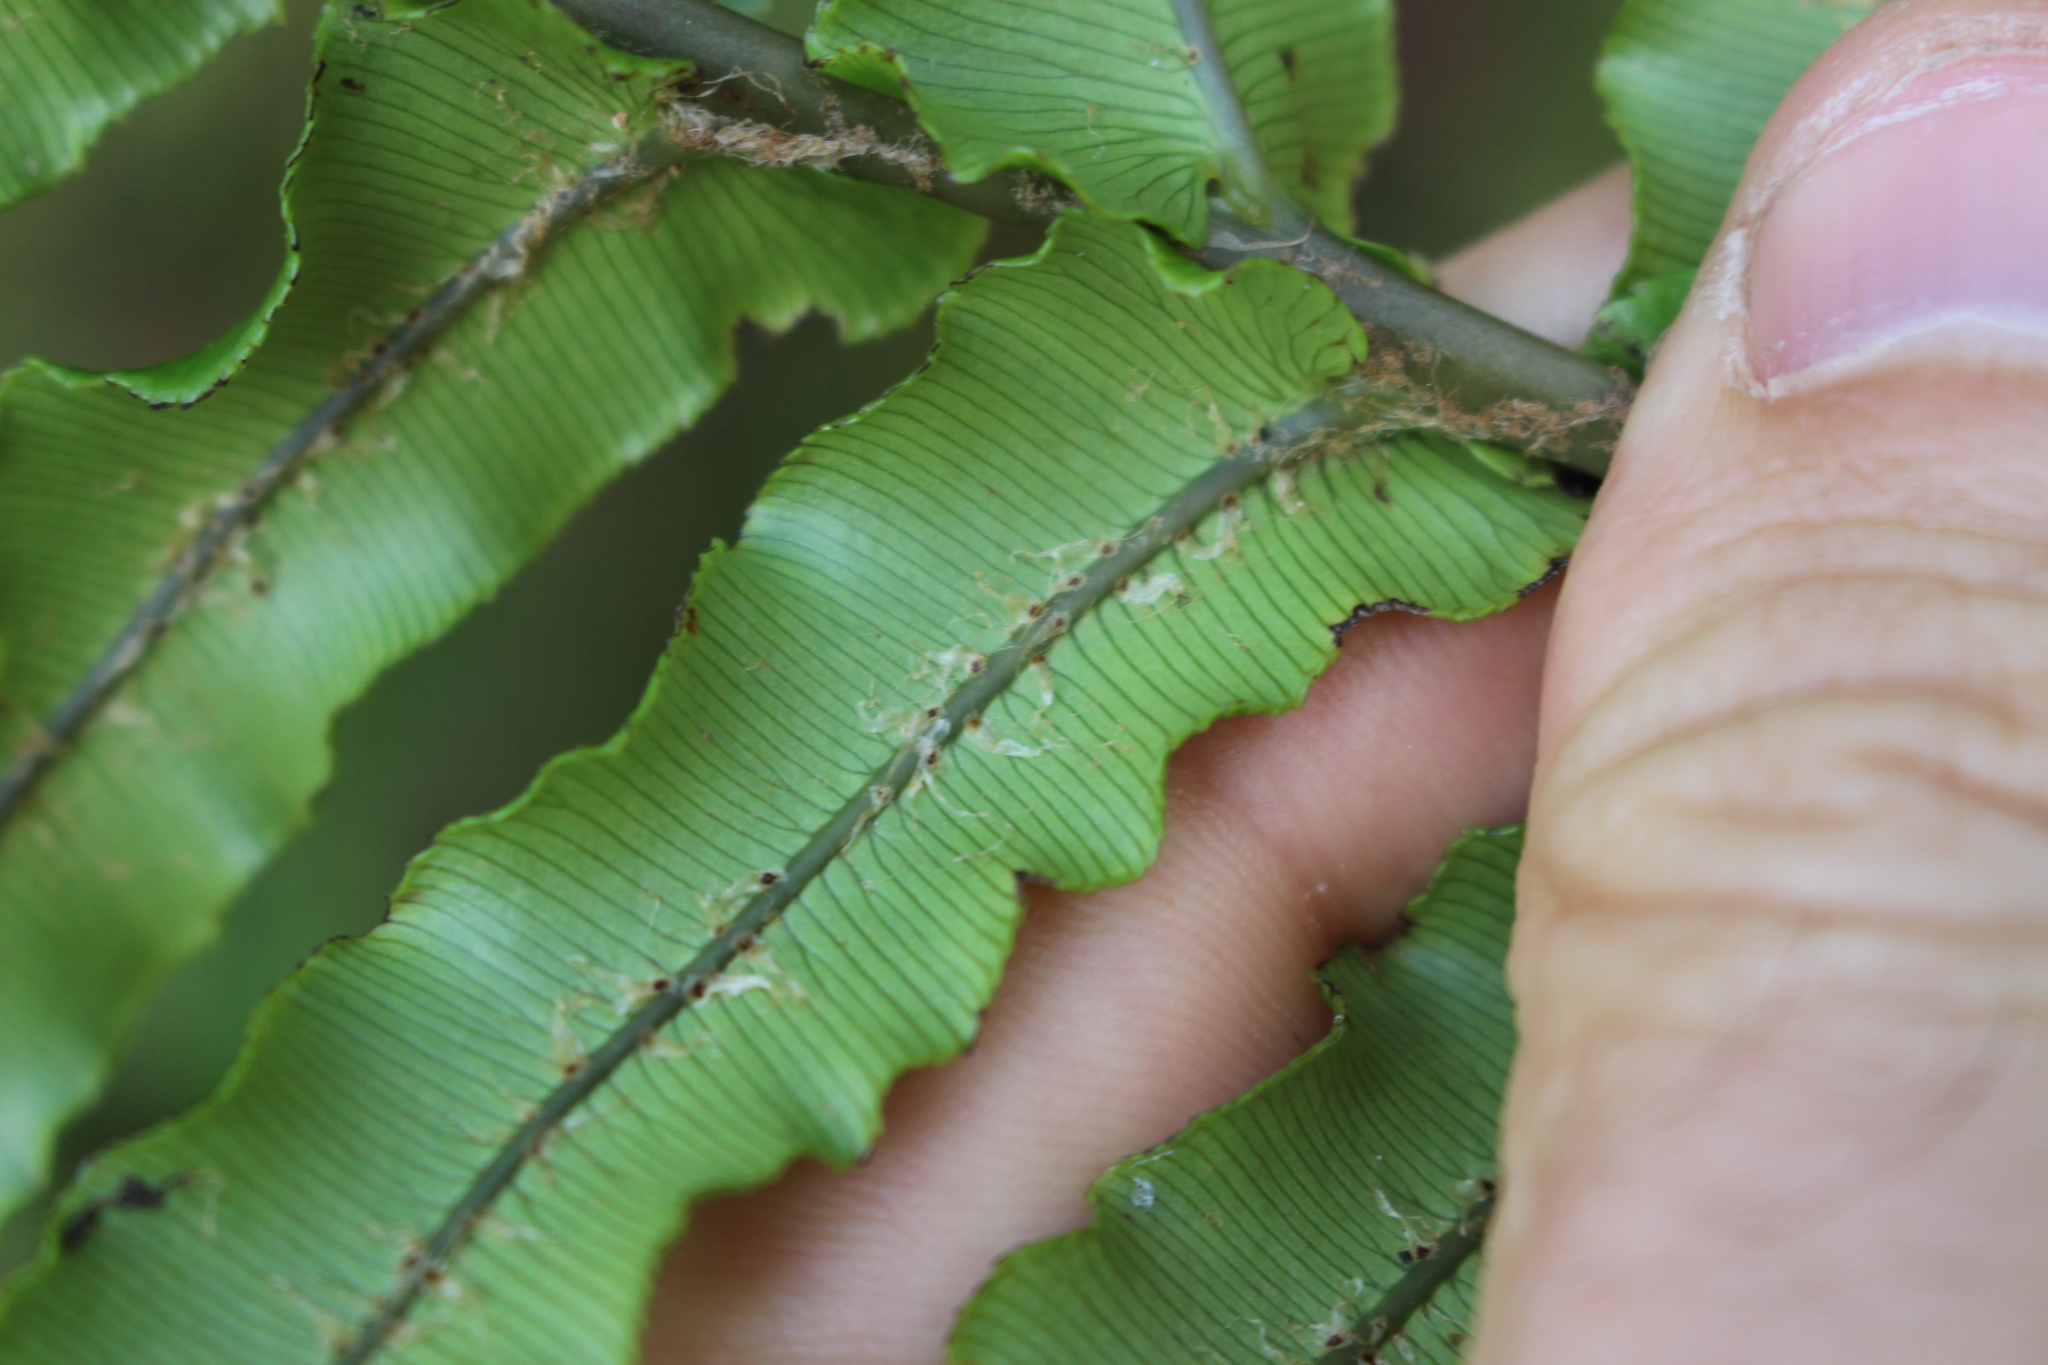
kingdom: Plantae
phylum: Tracheophyta
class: Polypodiopsida
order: Polypodiales
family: Blechnaceae
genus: Parablechnum
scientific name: Parablechnum novae-zelandiae
